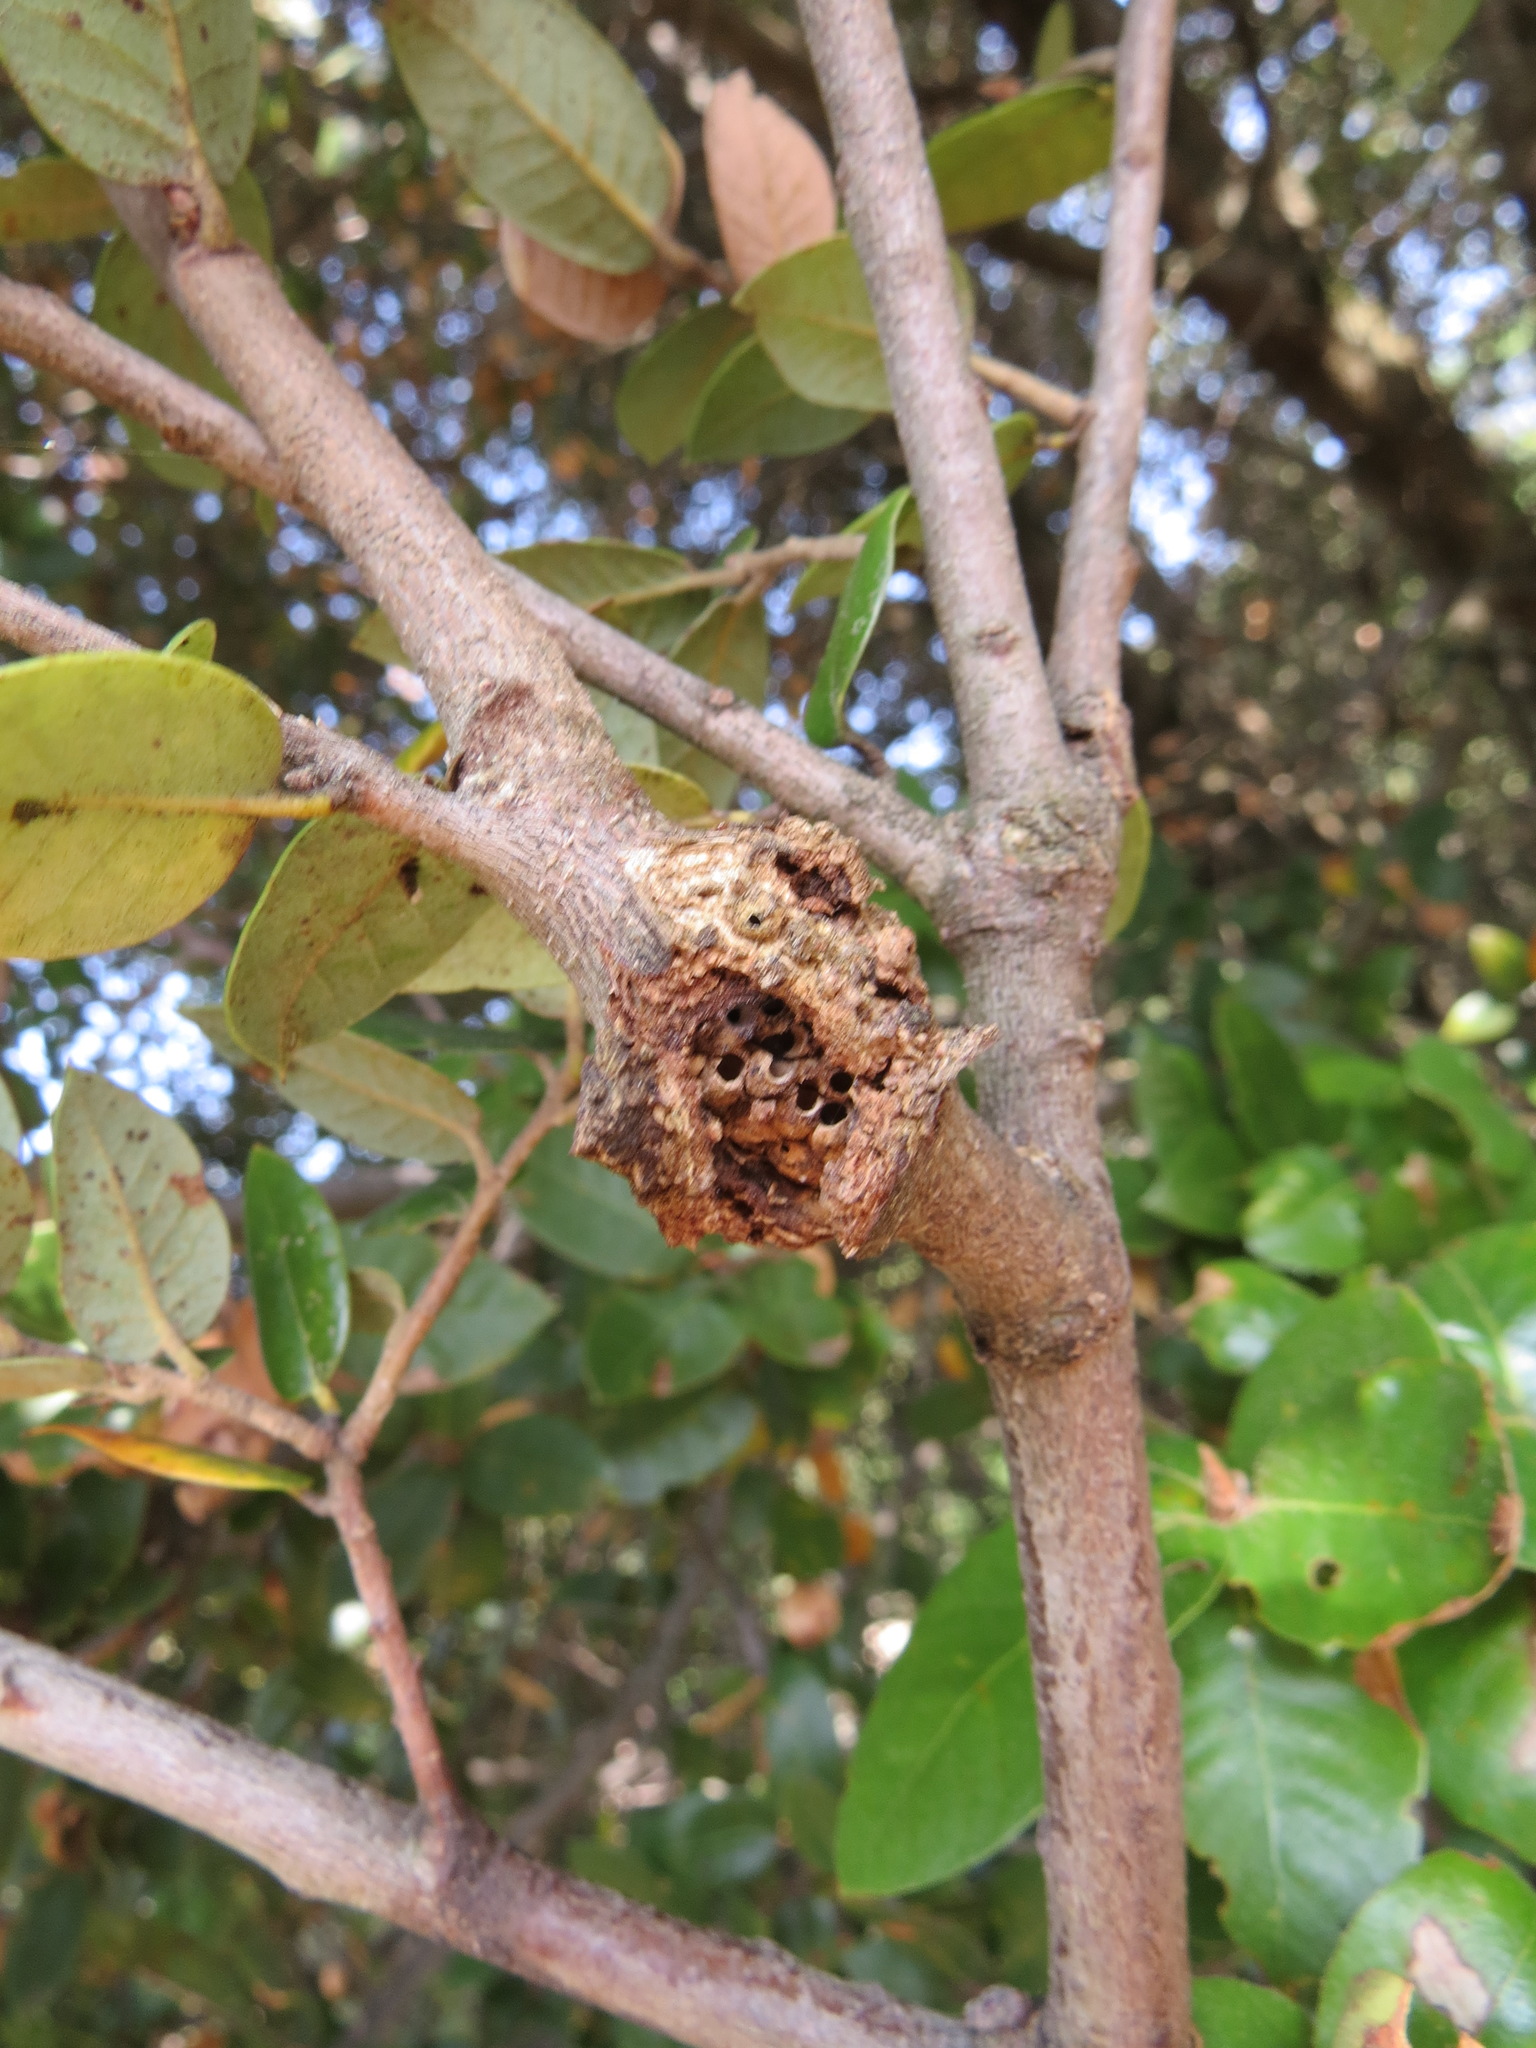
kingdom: Animalia
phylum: Arthropoda
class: Insecta
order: Hymenoptera
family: Cynipidae
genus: Dryocosmus
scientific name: Dryocosmus
